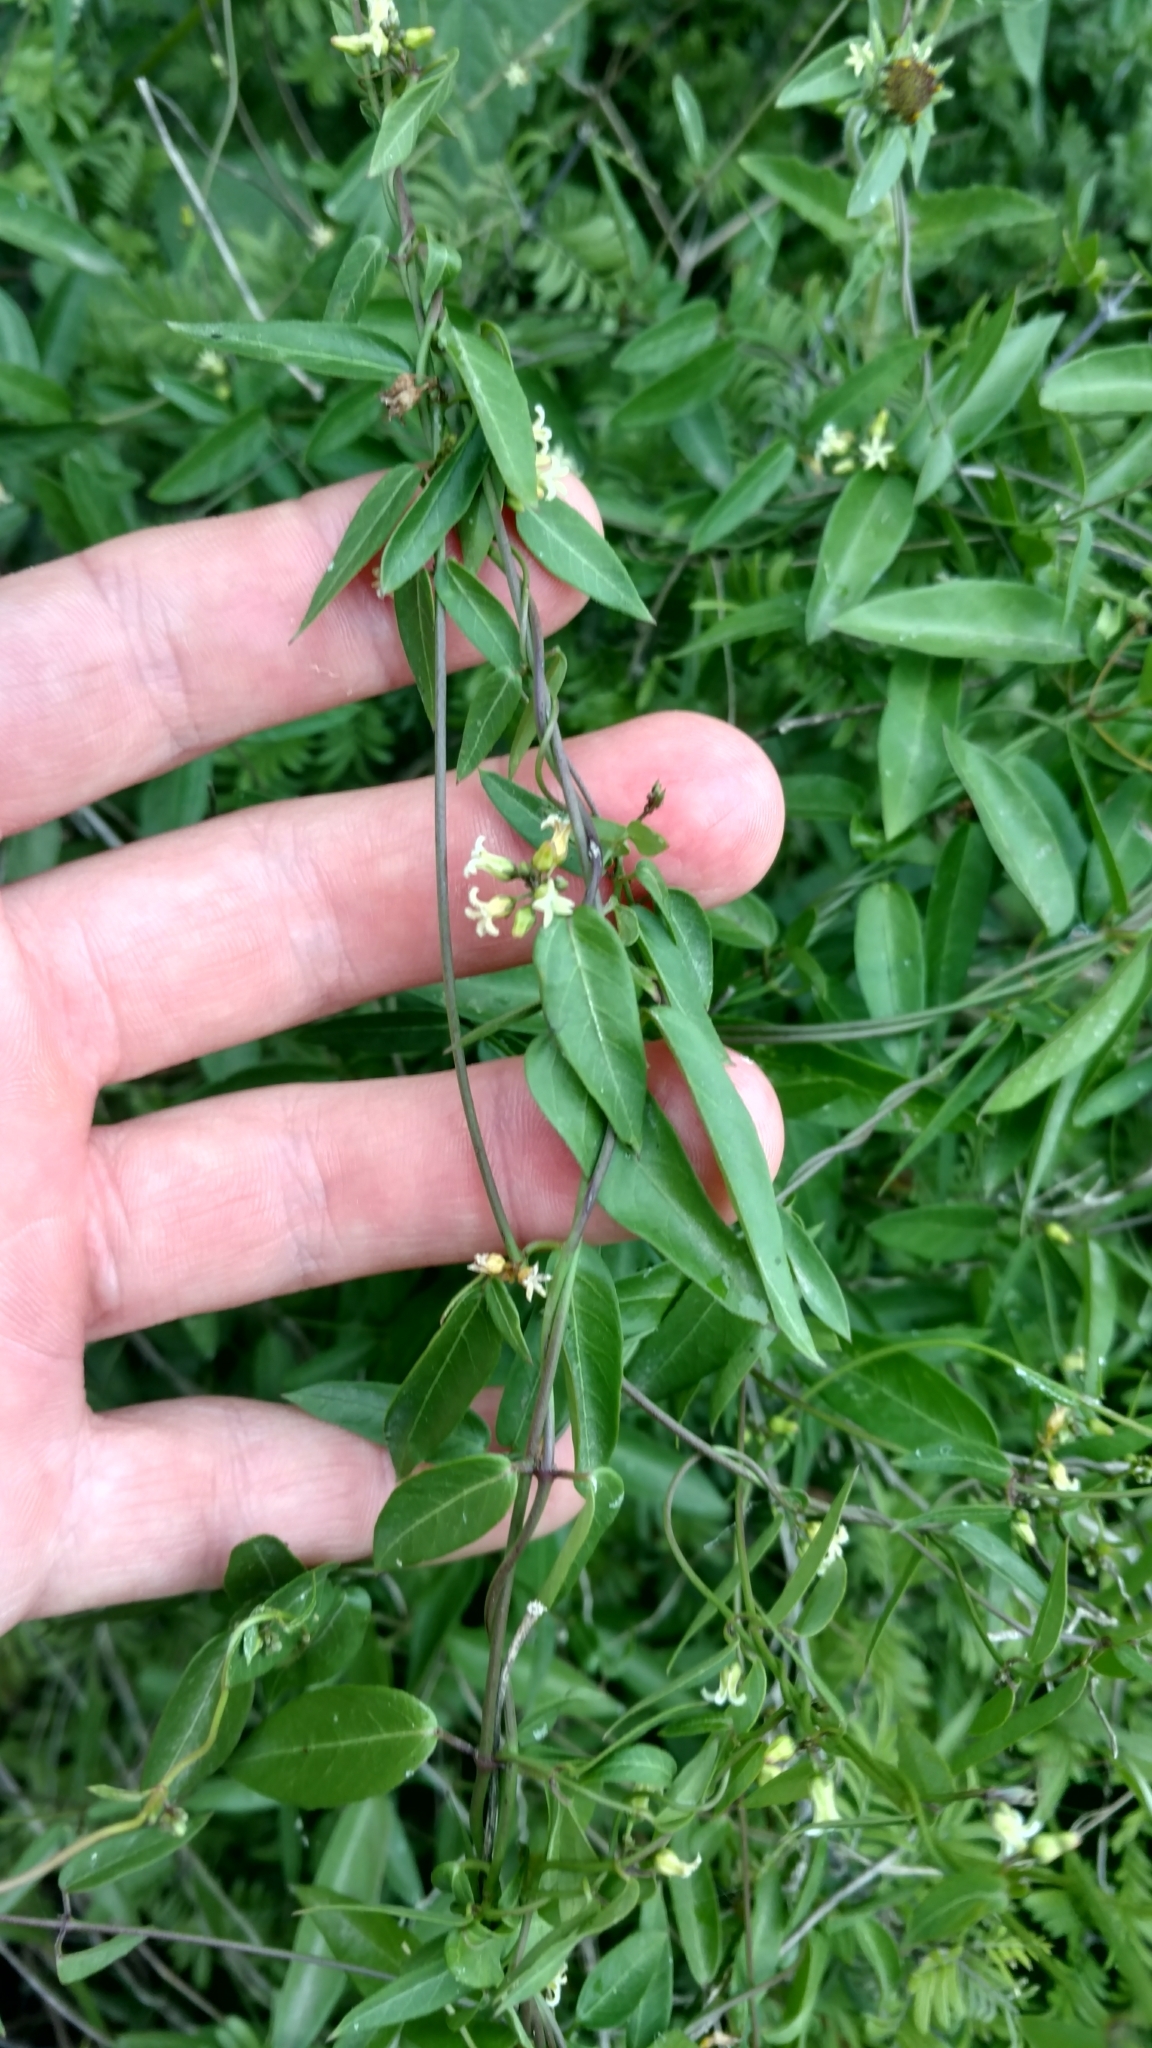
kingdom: Plantae
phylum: Tracheophyta
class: Magnoliopsida
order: Gentianales
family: Apocynaceae
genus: Metastelma
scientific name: Metastelma barbigerum
